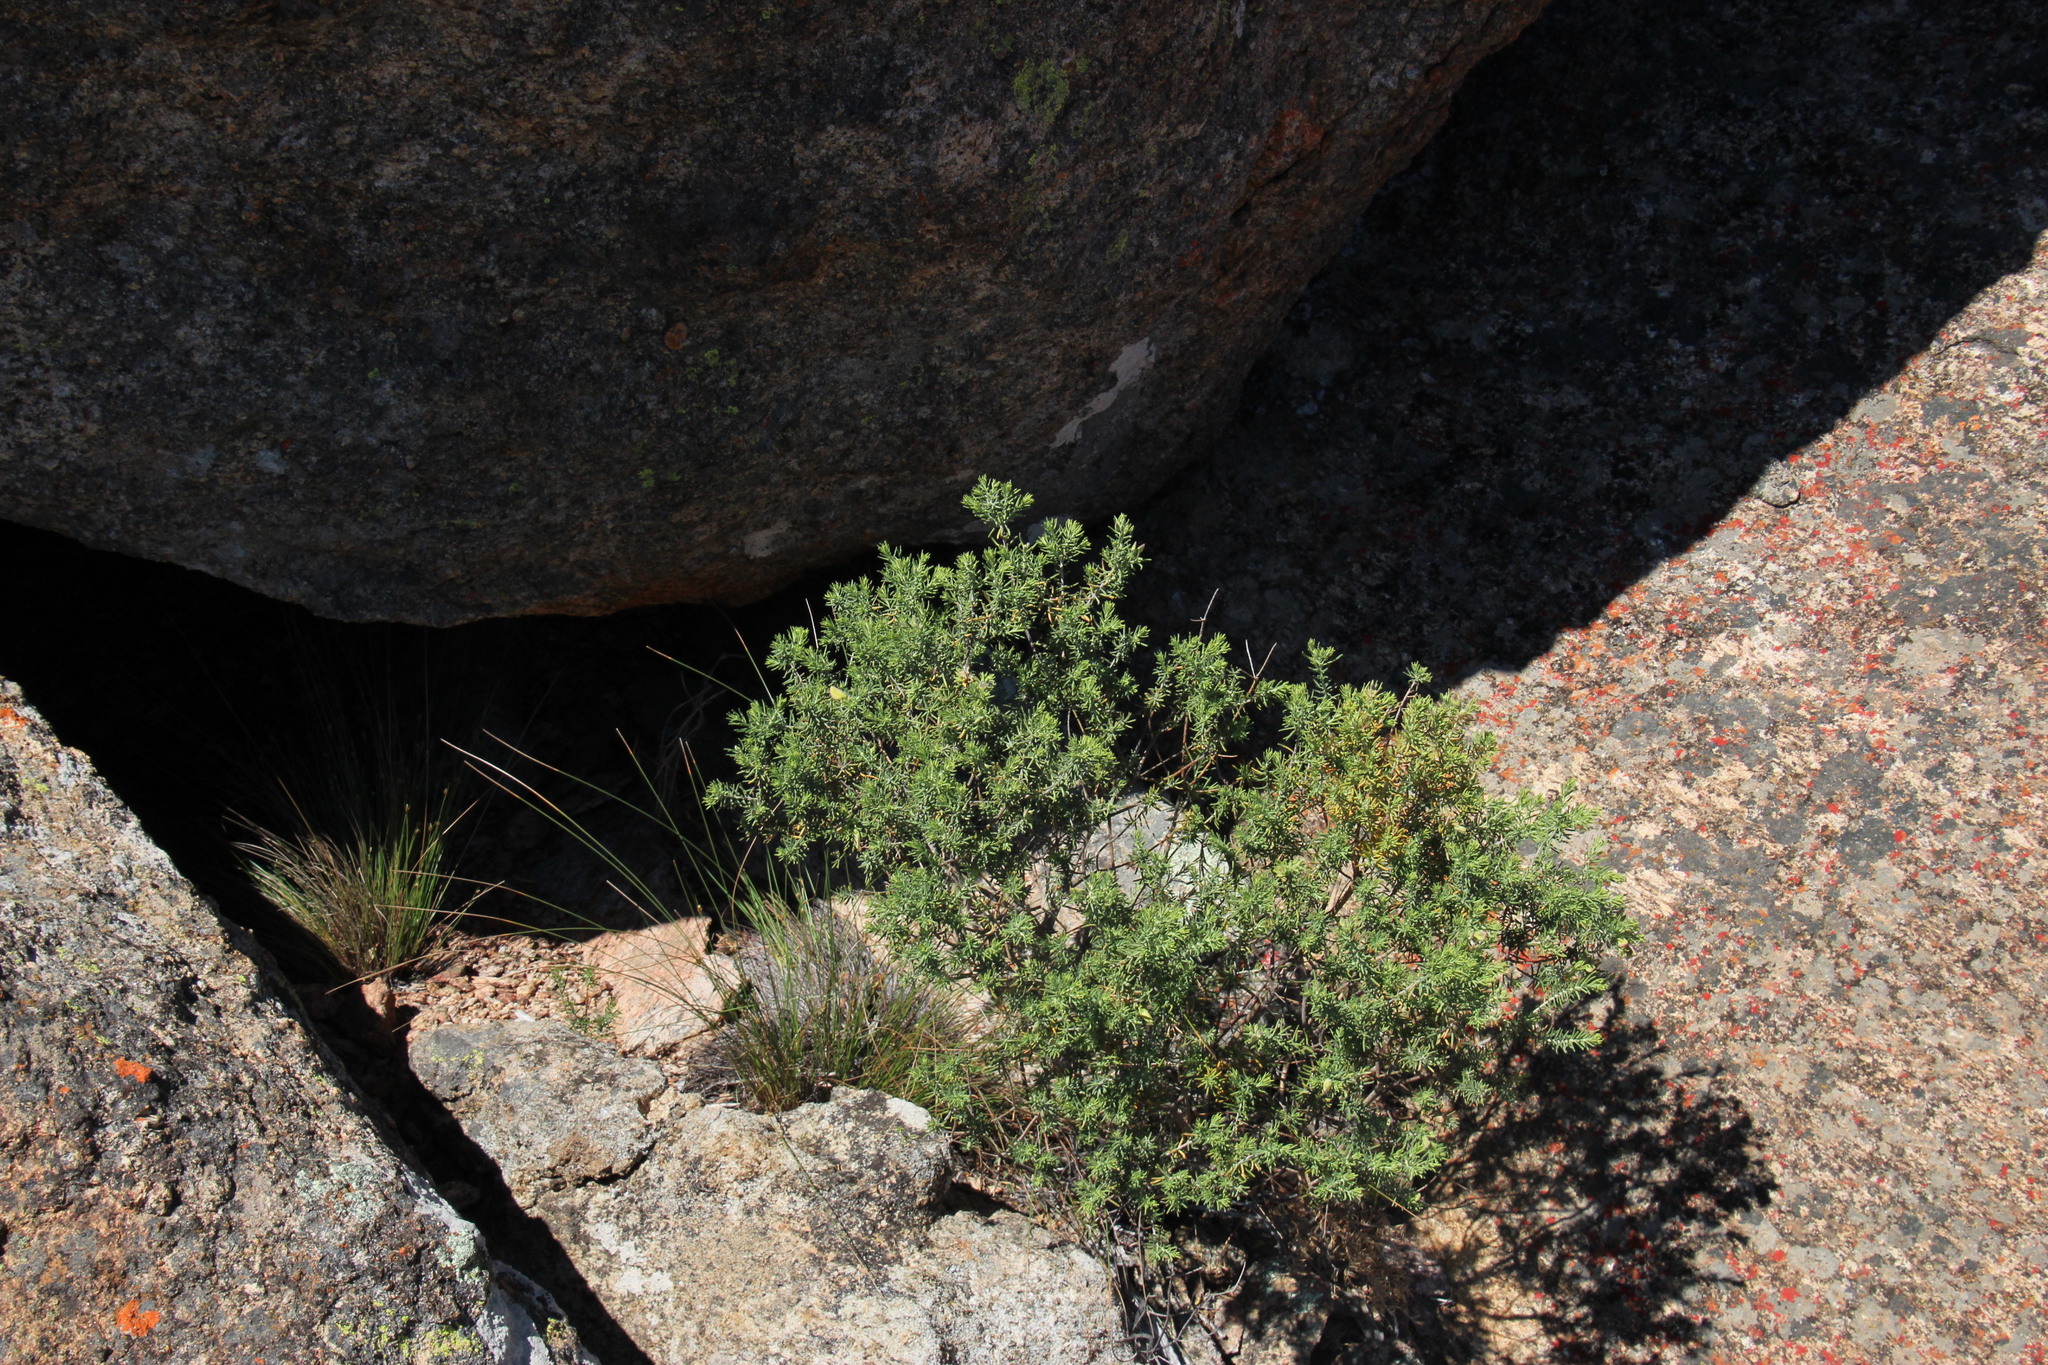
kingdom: Plantae
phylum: Tracheophyta
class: Magnoliopsida
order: Fabales
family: Polygalaceae
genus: Polygala
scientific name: Polygala lasiosepala
